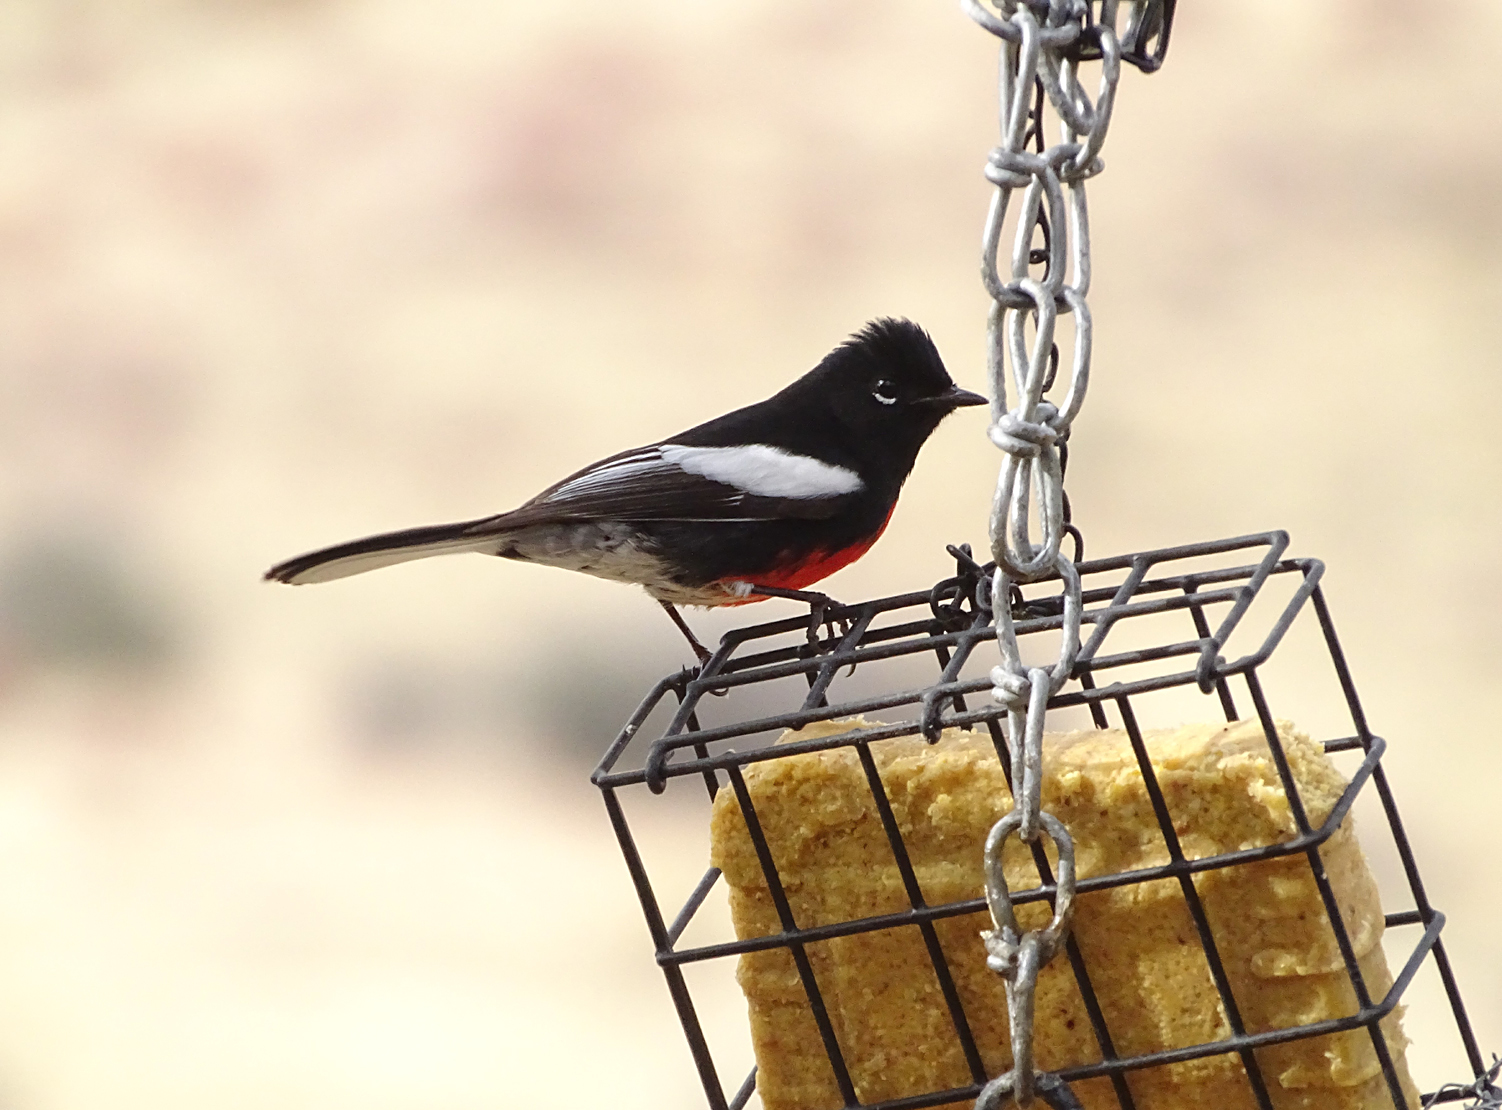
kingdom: Animalia
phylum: Chordata
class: Aves
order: Passeriformes
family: Parulidae
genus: Myioborus
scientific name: Myioborus pictus
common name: Painted whitestart
